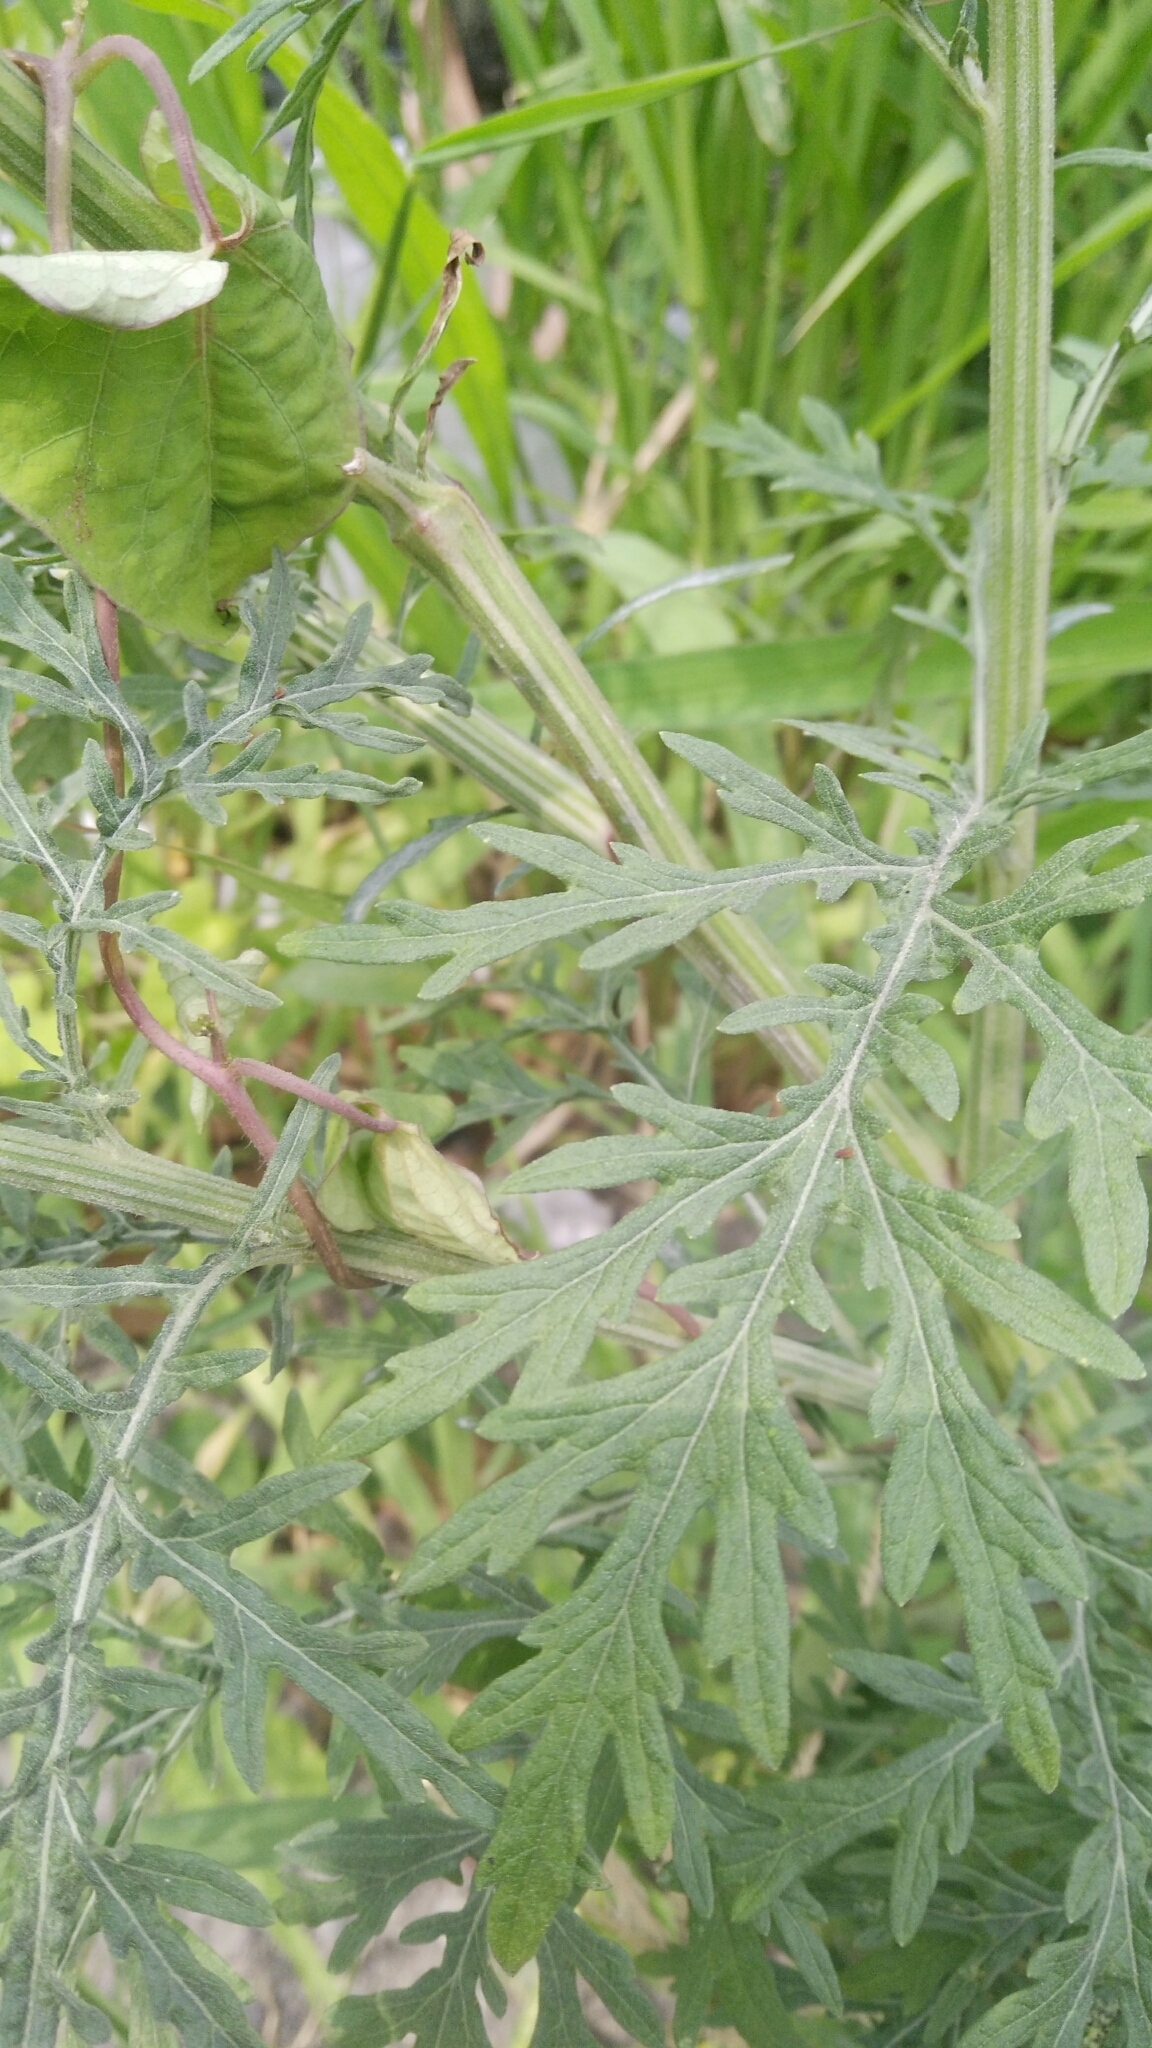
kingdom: Plantae
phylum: Tracheophyta
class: Magnoliopsida
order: Asterales
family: Asteraceae
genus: Parthenium
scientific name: Parthenium hysterophorus
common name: Santa maria feverfew
